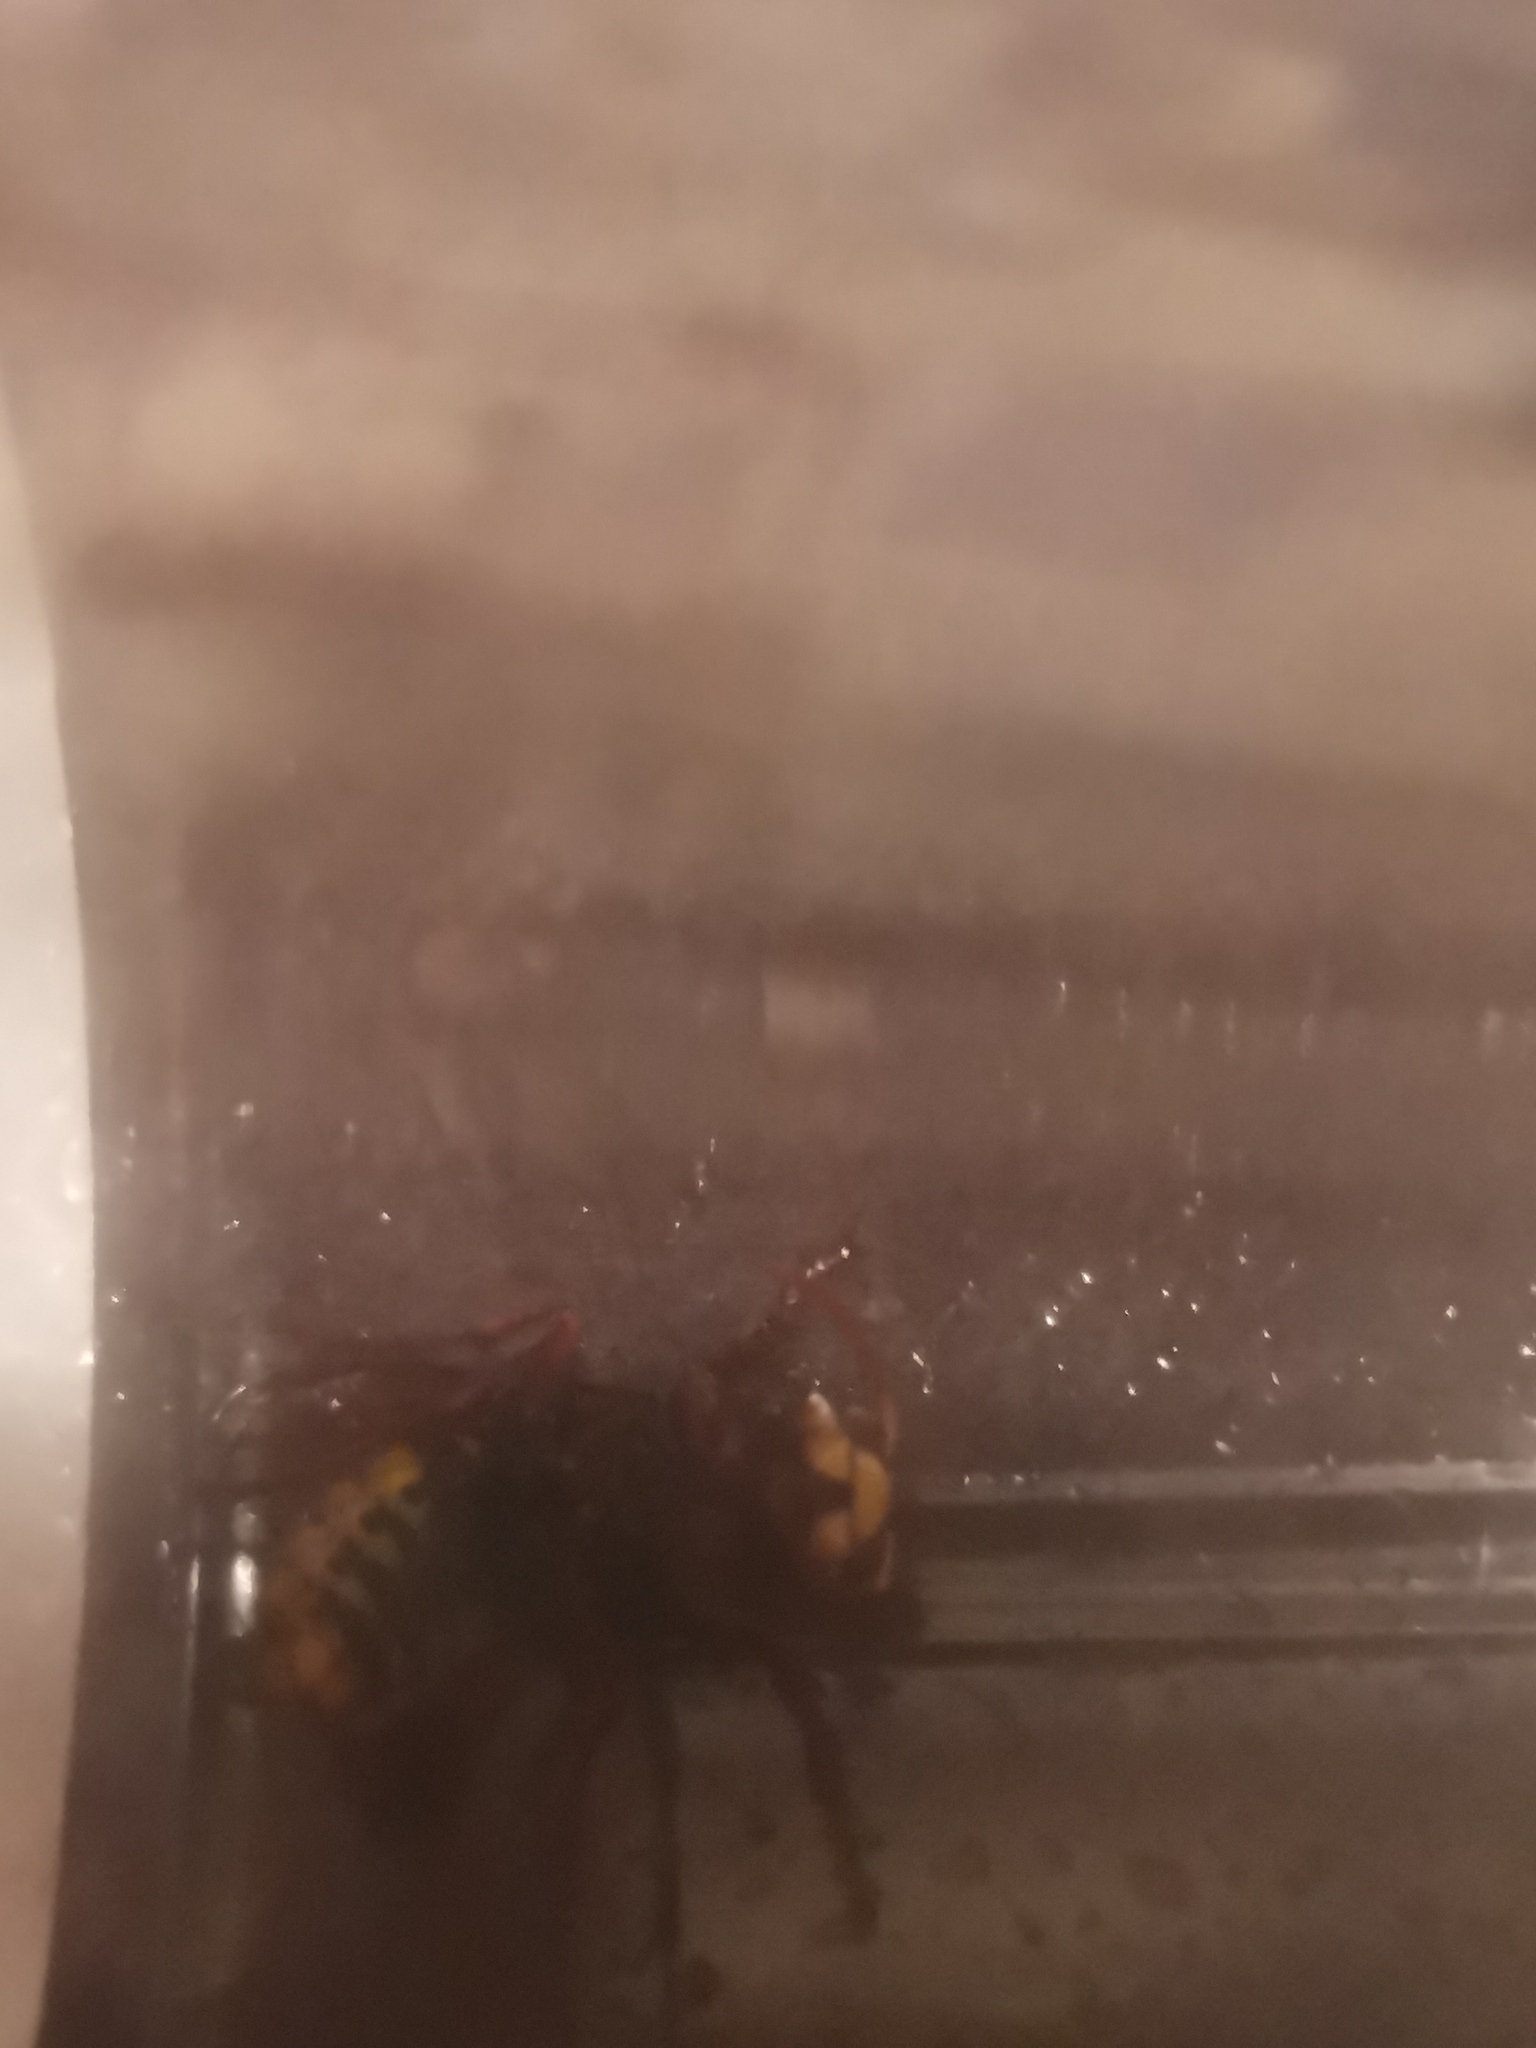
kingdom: Animalia
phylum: Arthropoda
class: Insecta
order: Hymenoptera
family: Vespidae
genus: Vespa
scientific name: Vespa crabro
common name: Hornet
